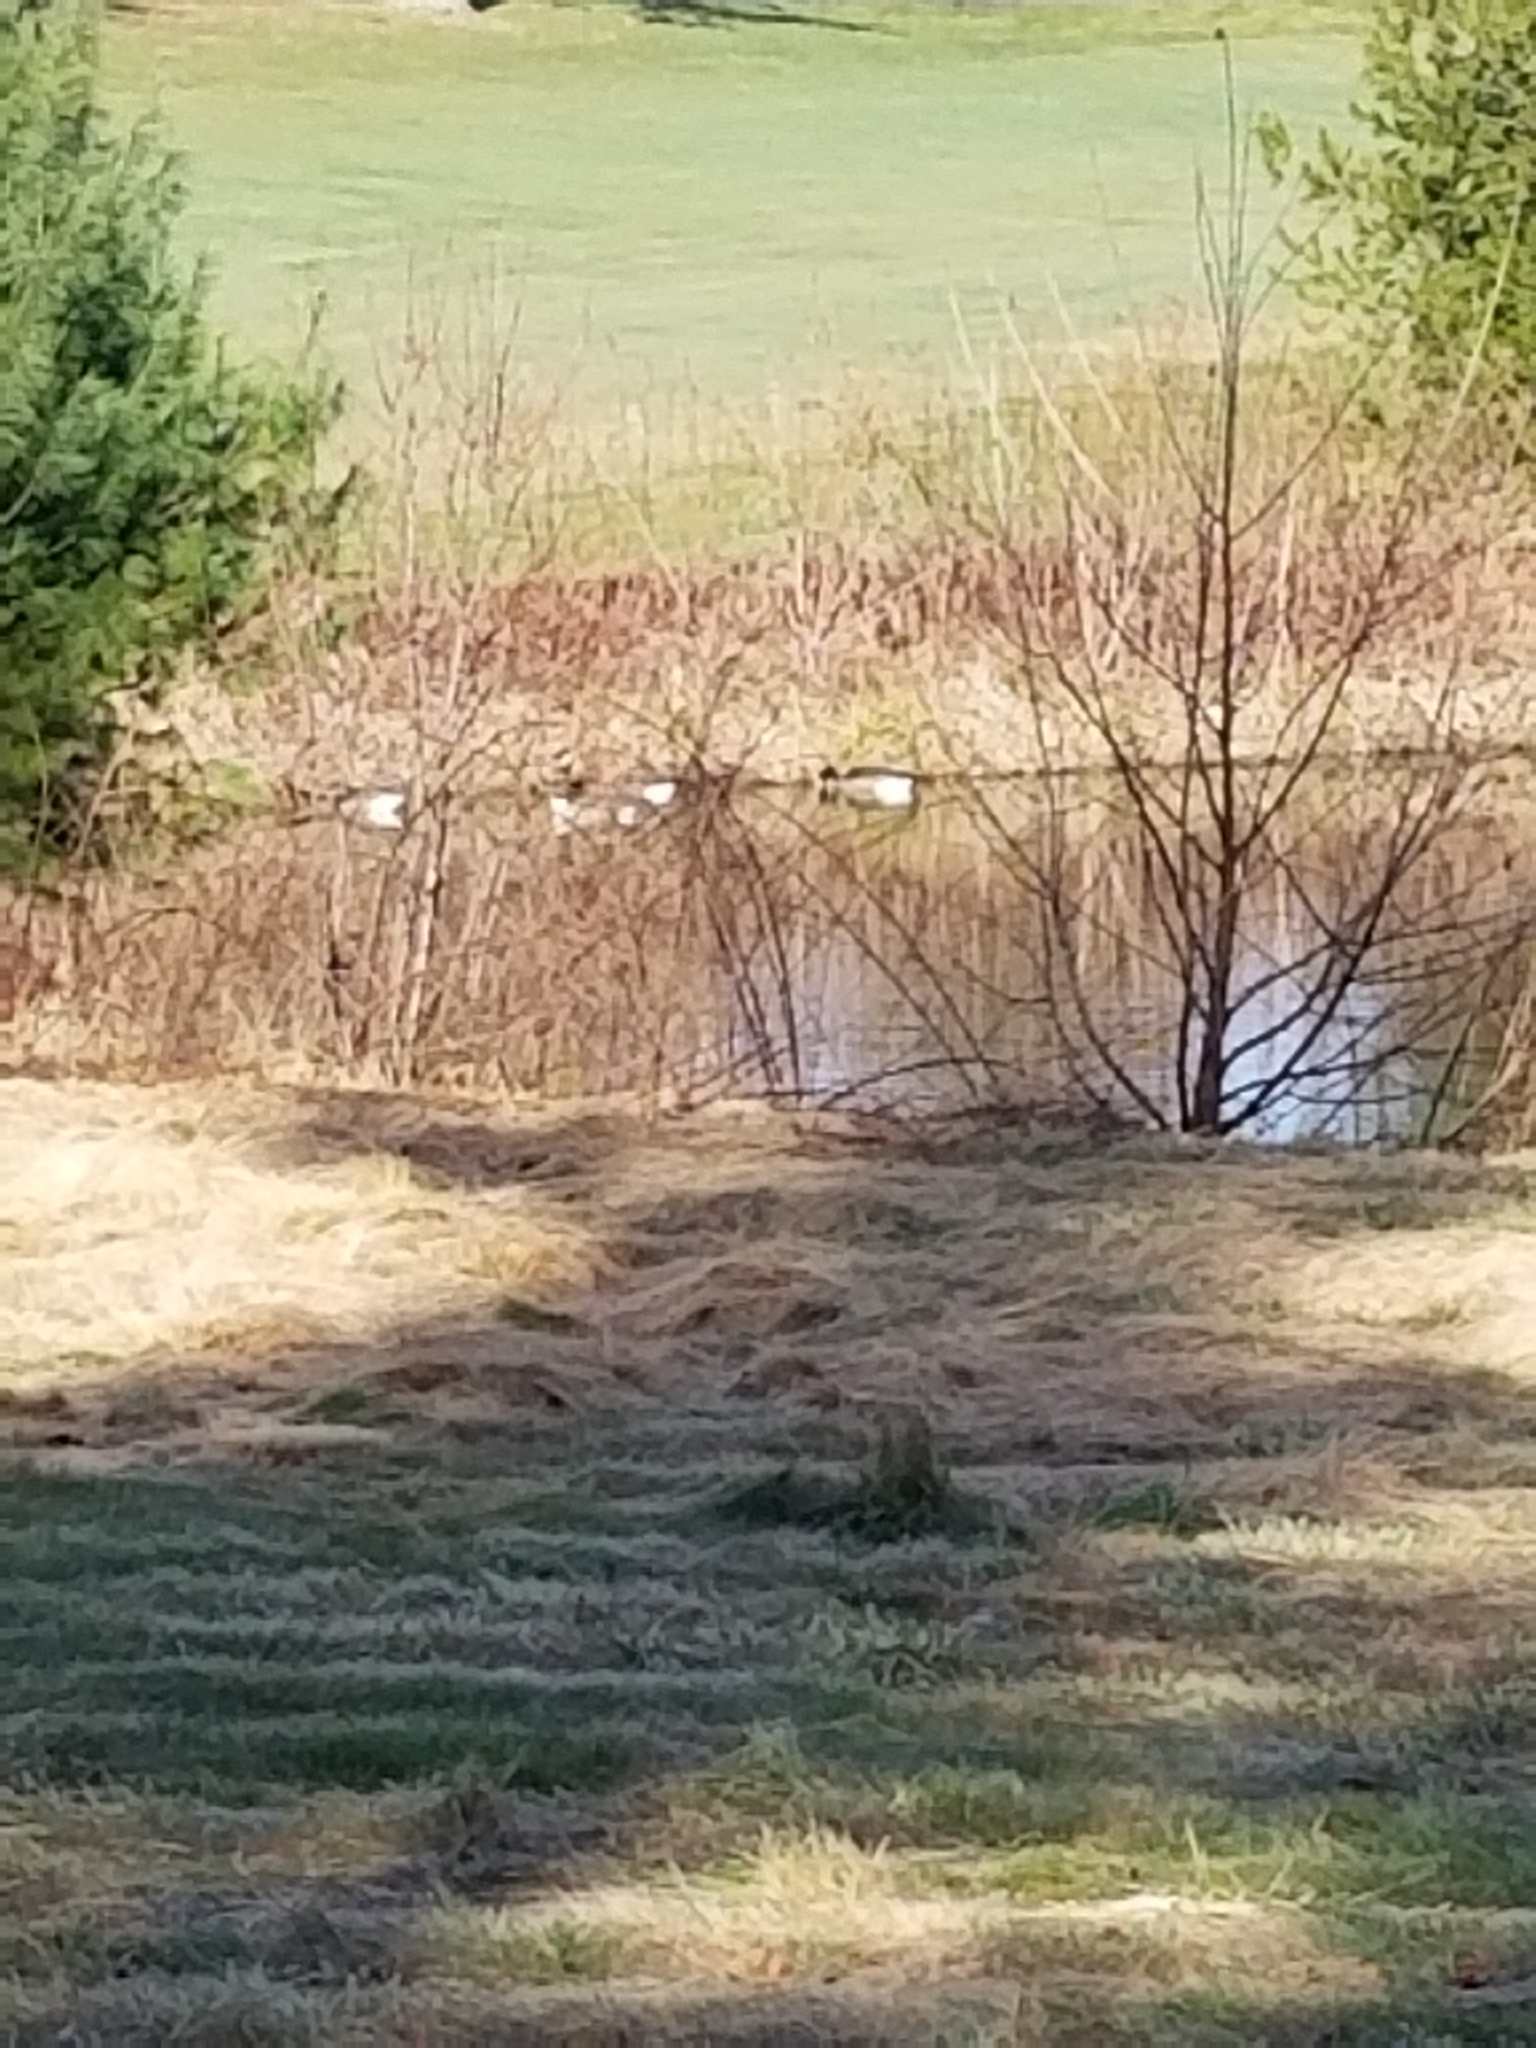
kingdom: Animalia
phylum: Chordata
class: Aves
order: Anseriformes
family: Anatidae
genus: Branta
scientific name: Branta canadensis
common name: Canada goose
